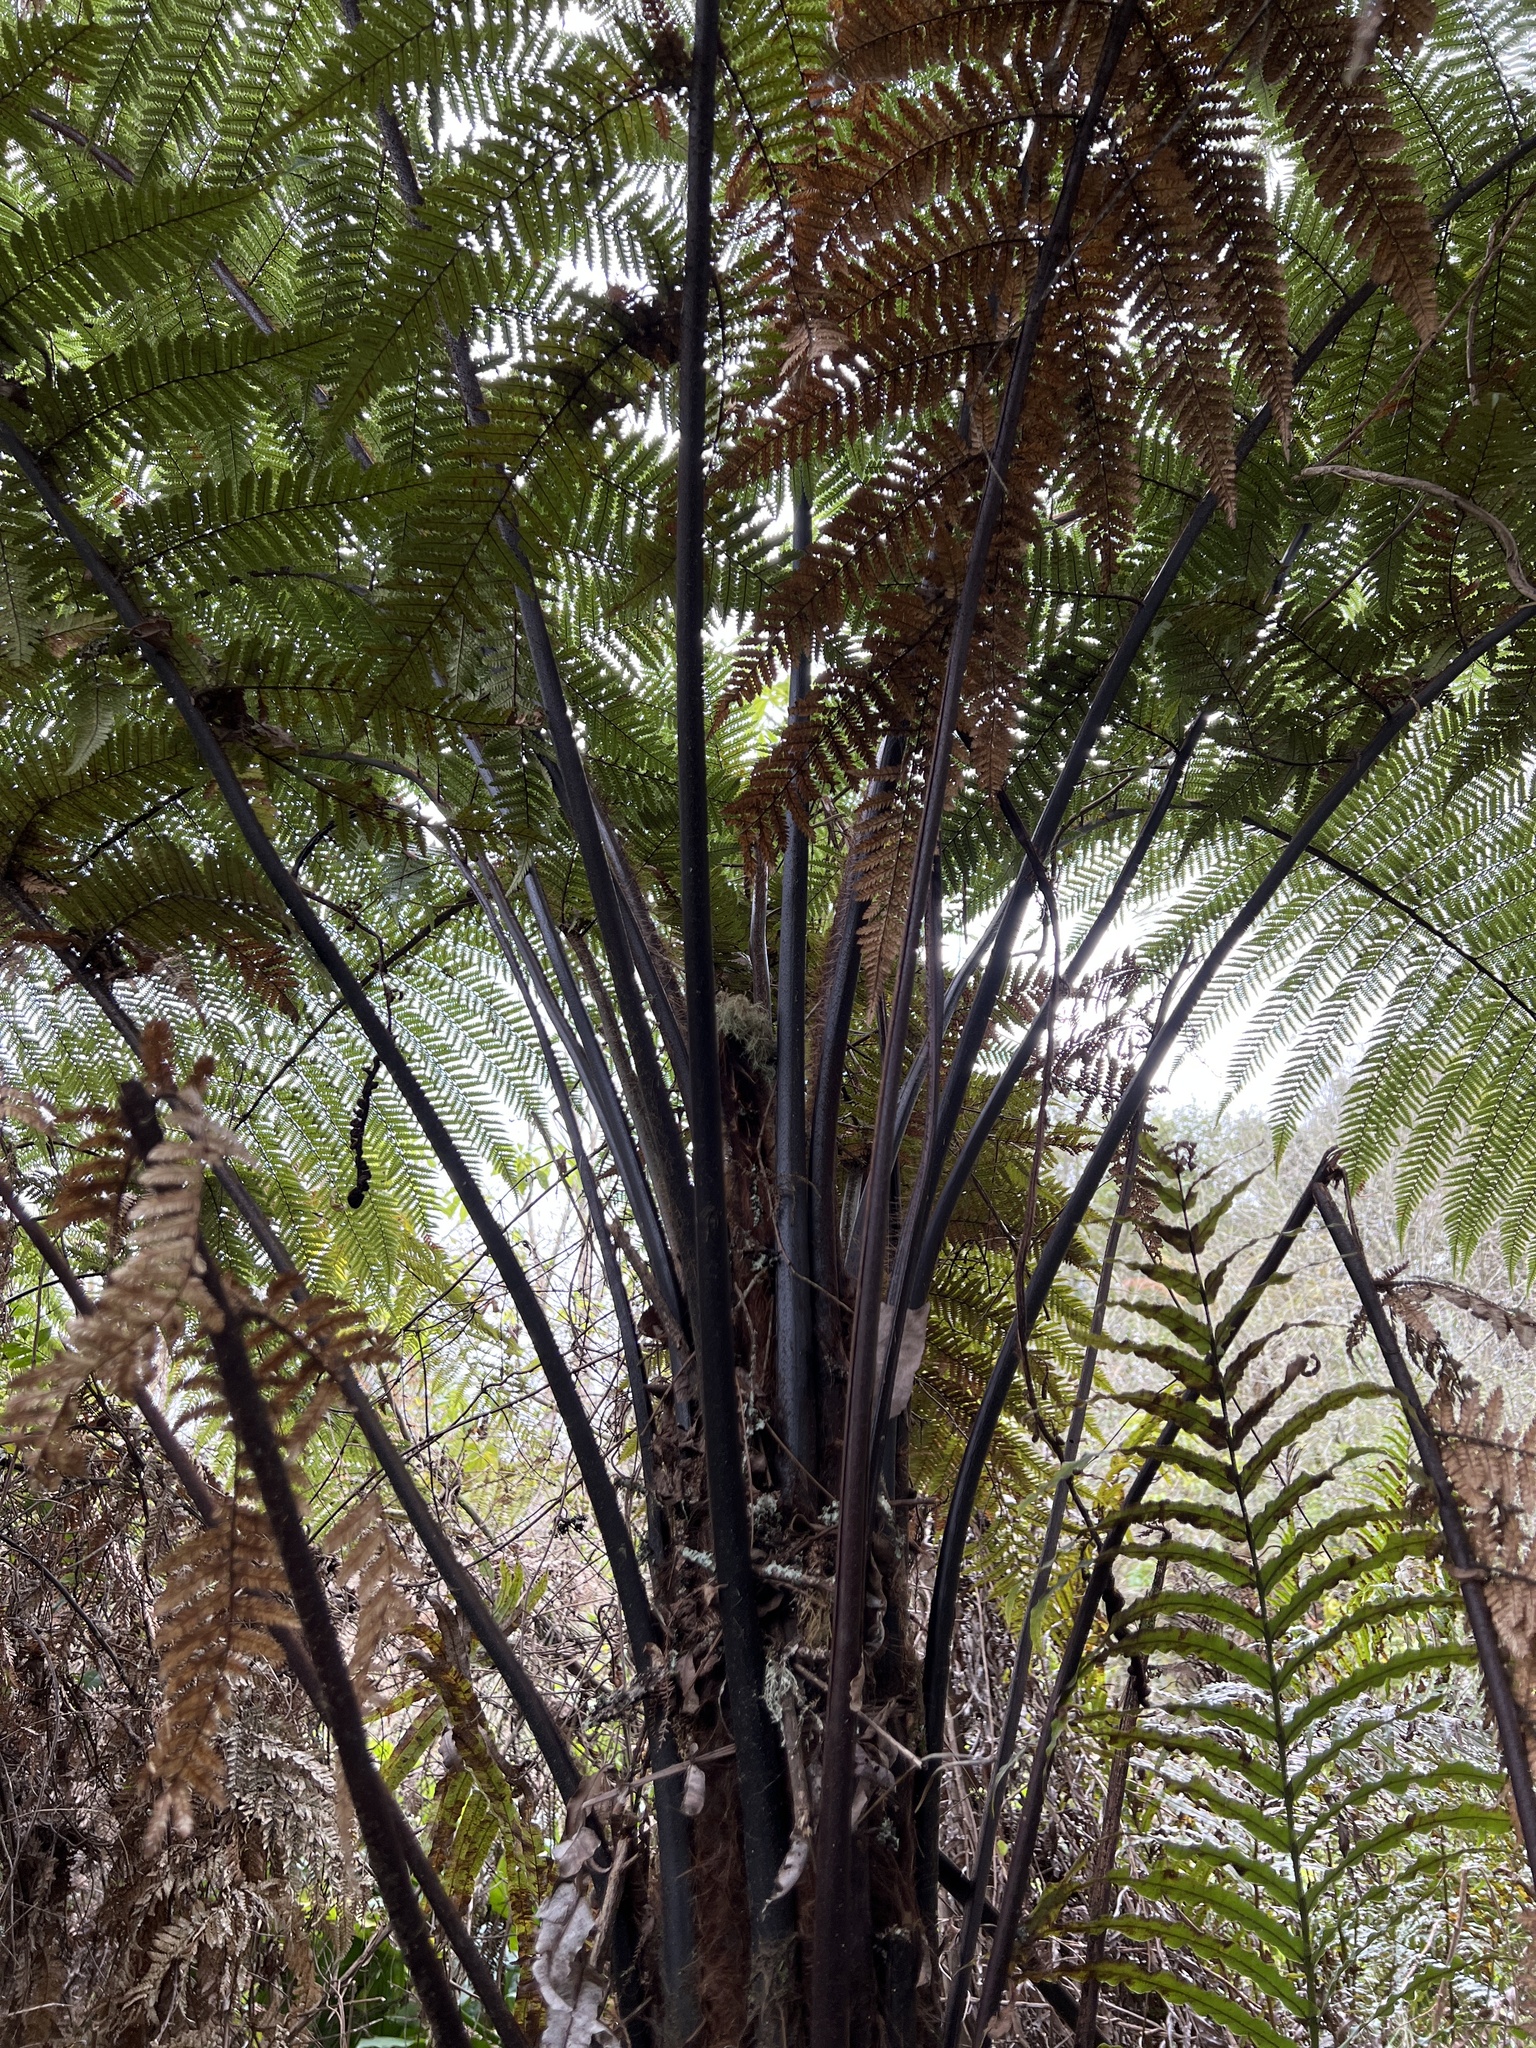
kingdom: Plantae
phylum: Tracheophyta
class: Polypodiopsida
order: Cyatheales
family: Dicksoniaceae
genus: Dicksonia
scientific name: Dicksonia squarrosa
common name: Hard treefern
